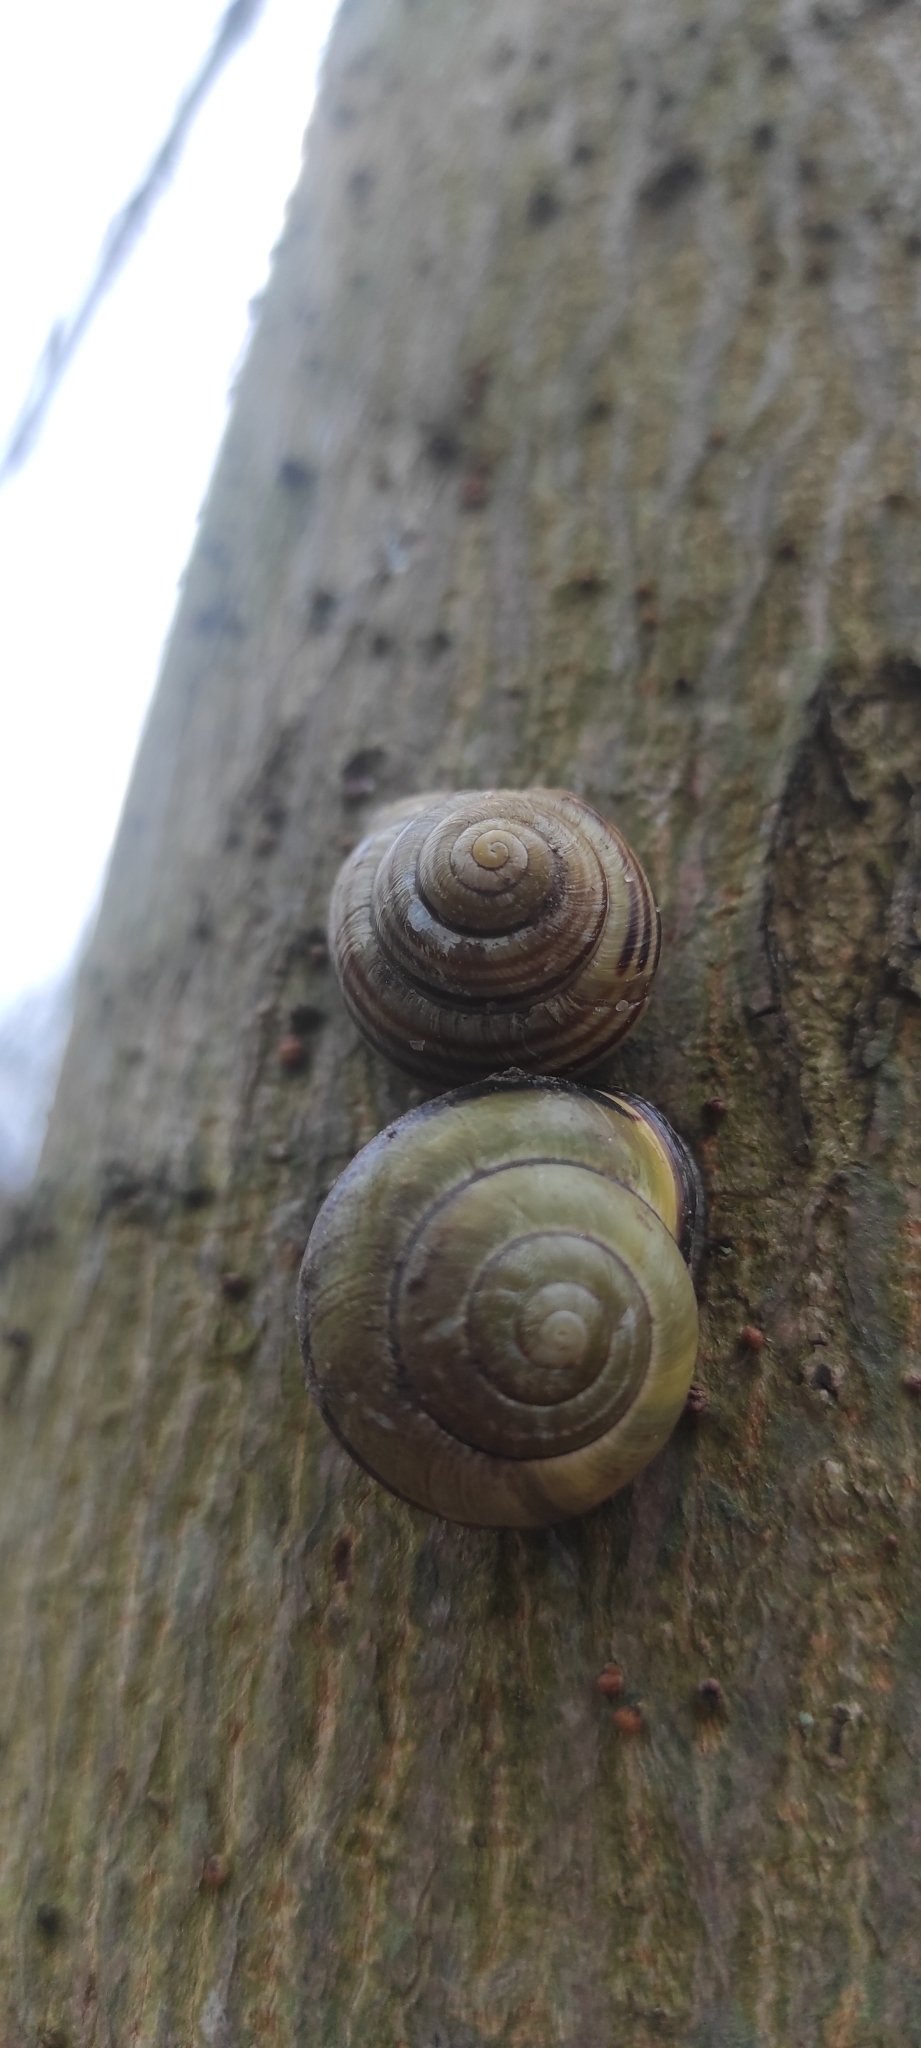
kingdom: Animalia
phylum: Mollusca
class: Gastropoda
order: Stylommatophora
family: Helicidae
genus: Cepaea
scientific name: Cepaea nemoralis
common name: Grovesnail
